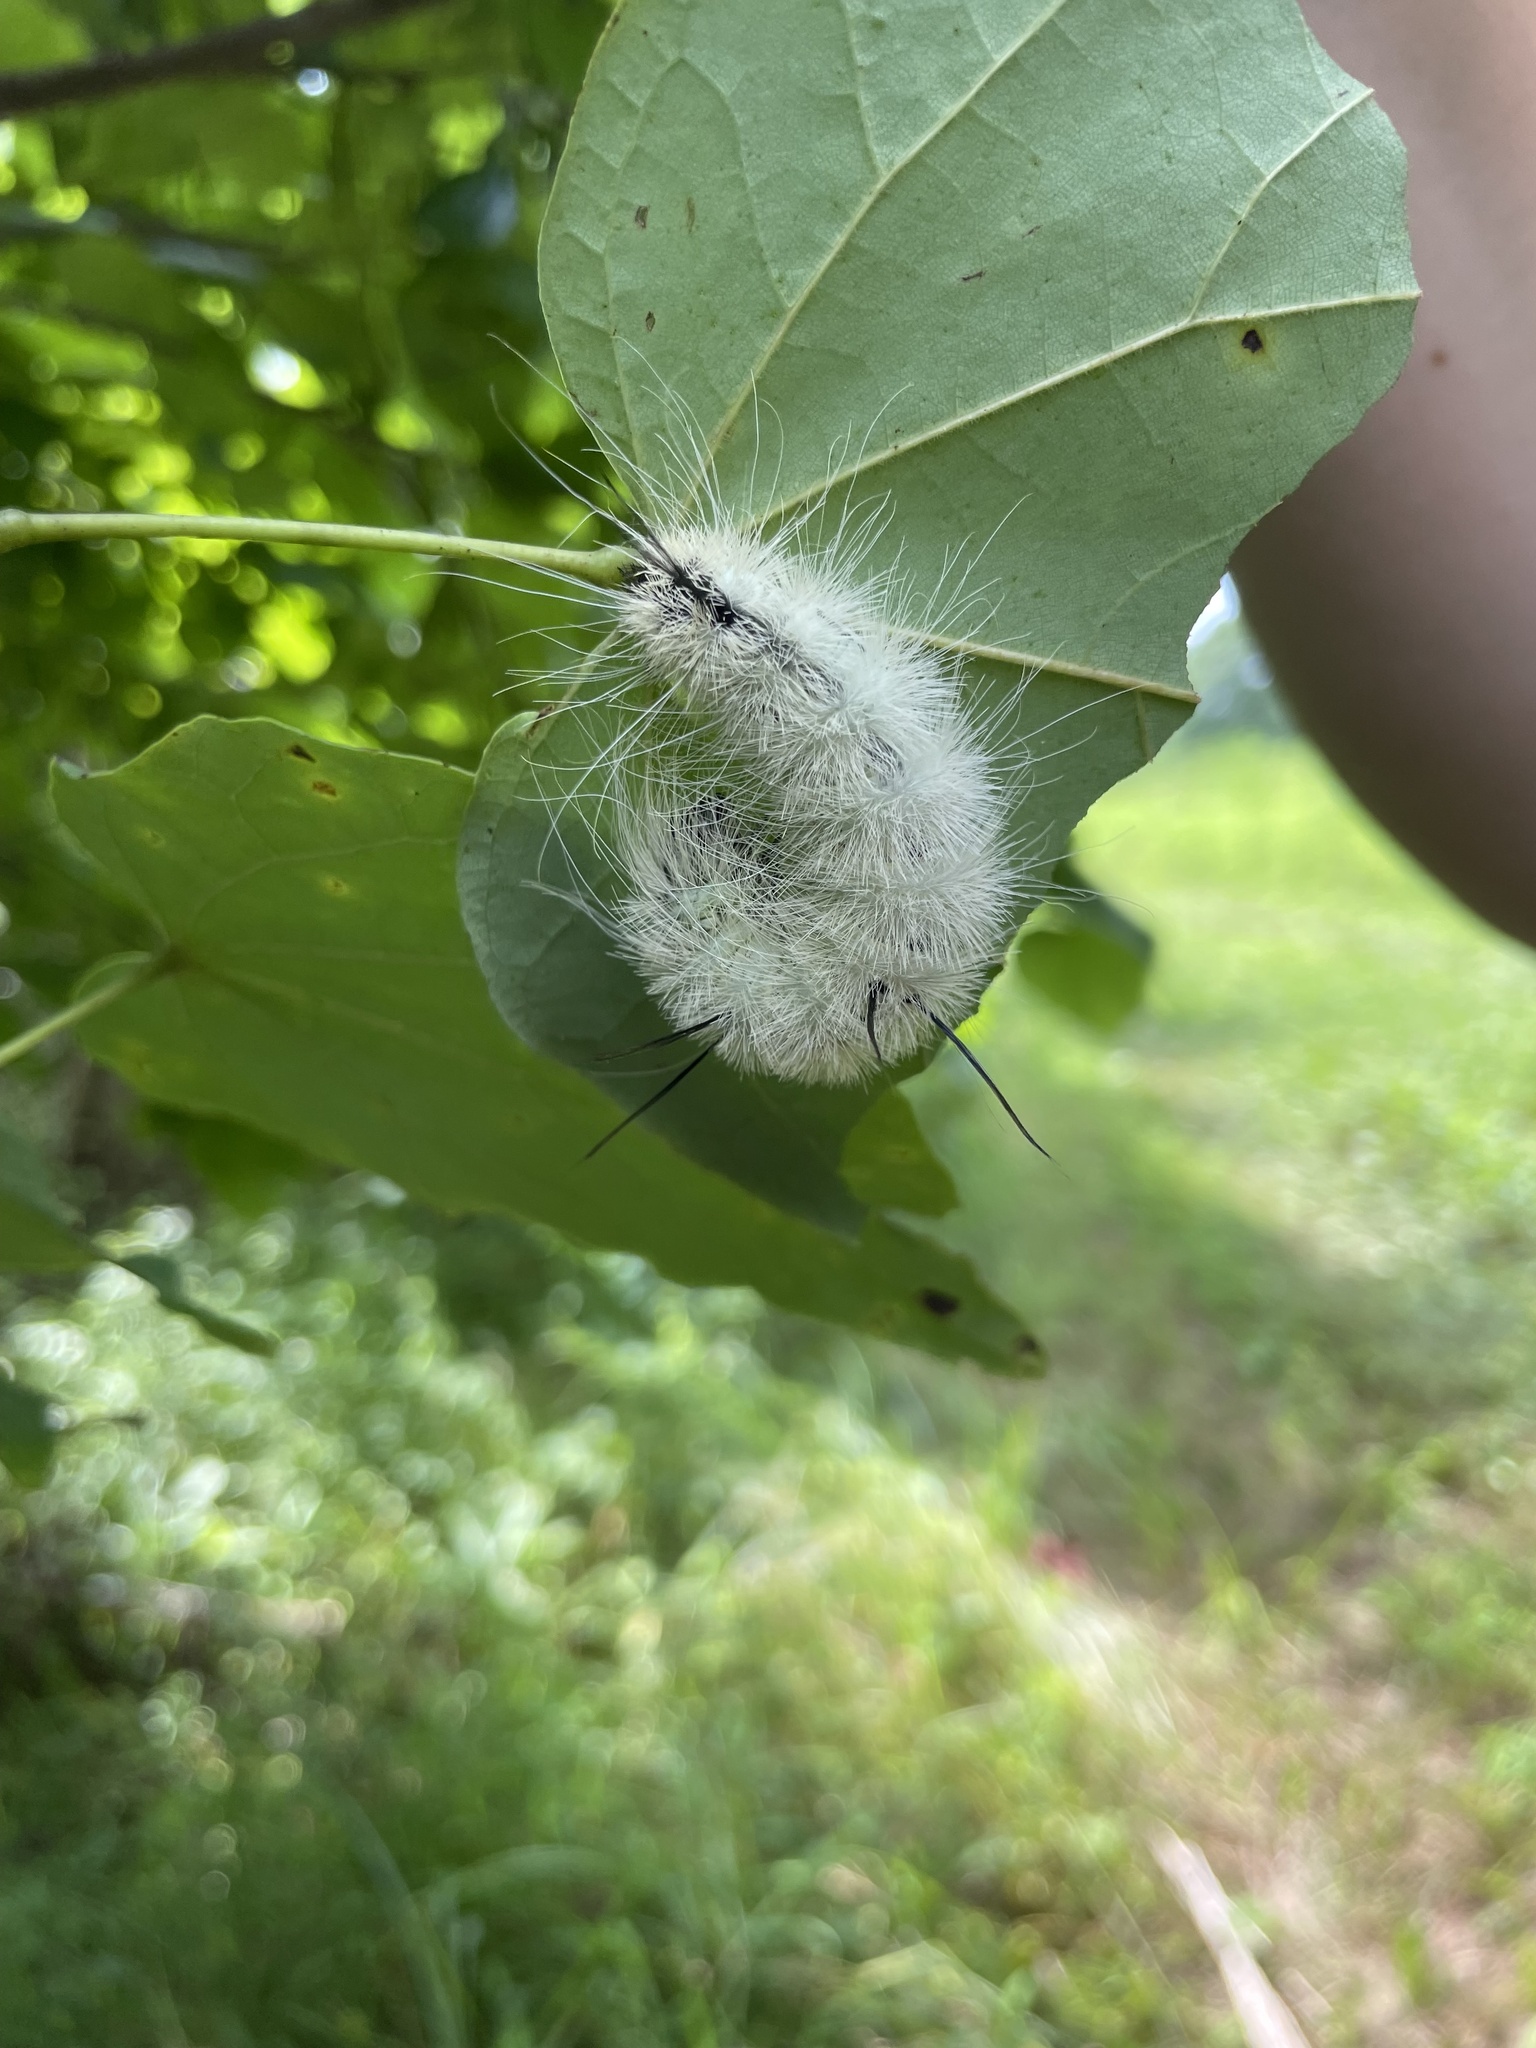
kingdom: Animalia
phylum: Arthropoda
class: Insecta
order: Lepidoptera
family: Noctuidae
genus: Acronicta
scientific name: Acronicta americana
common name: American dagger
